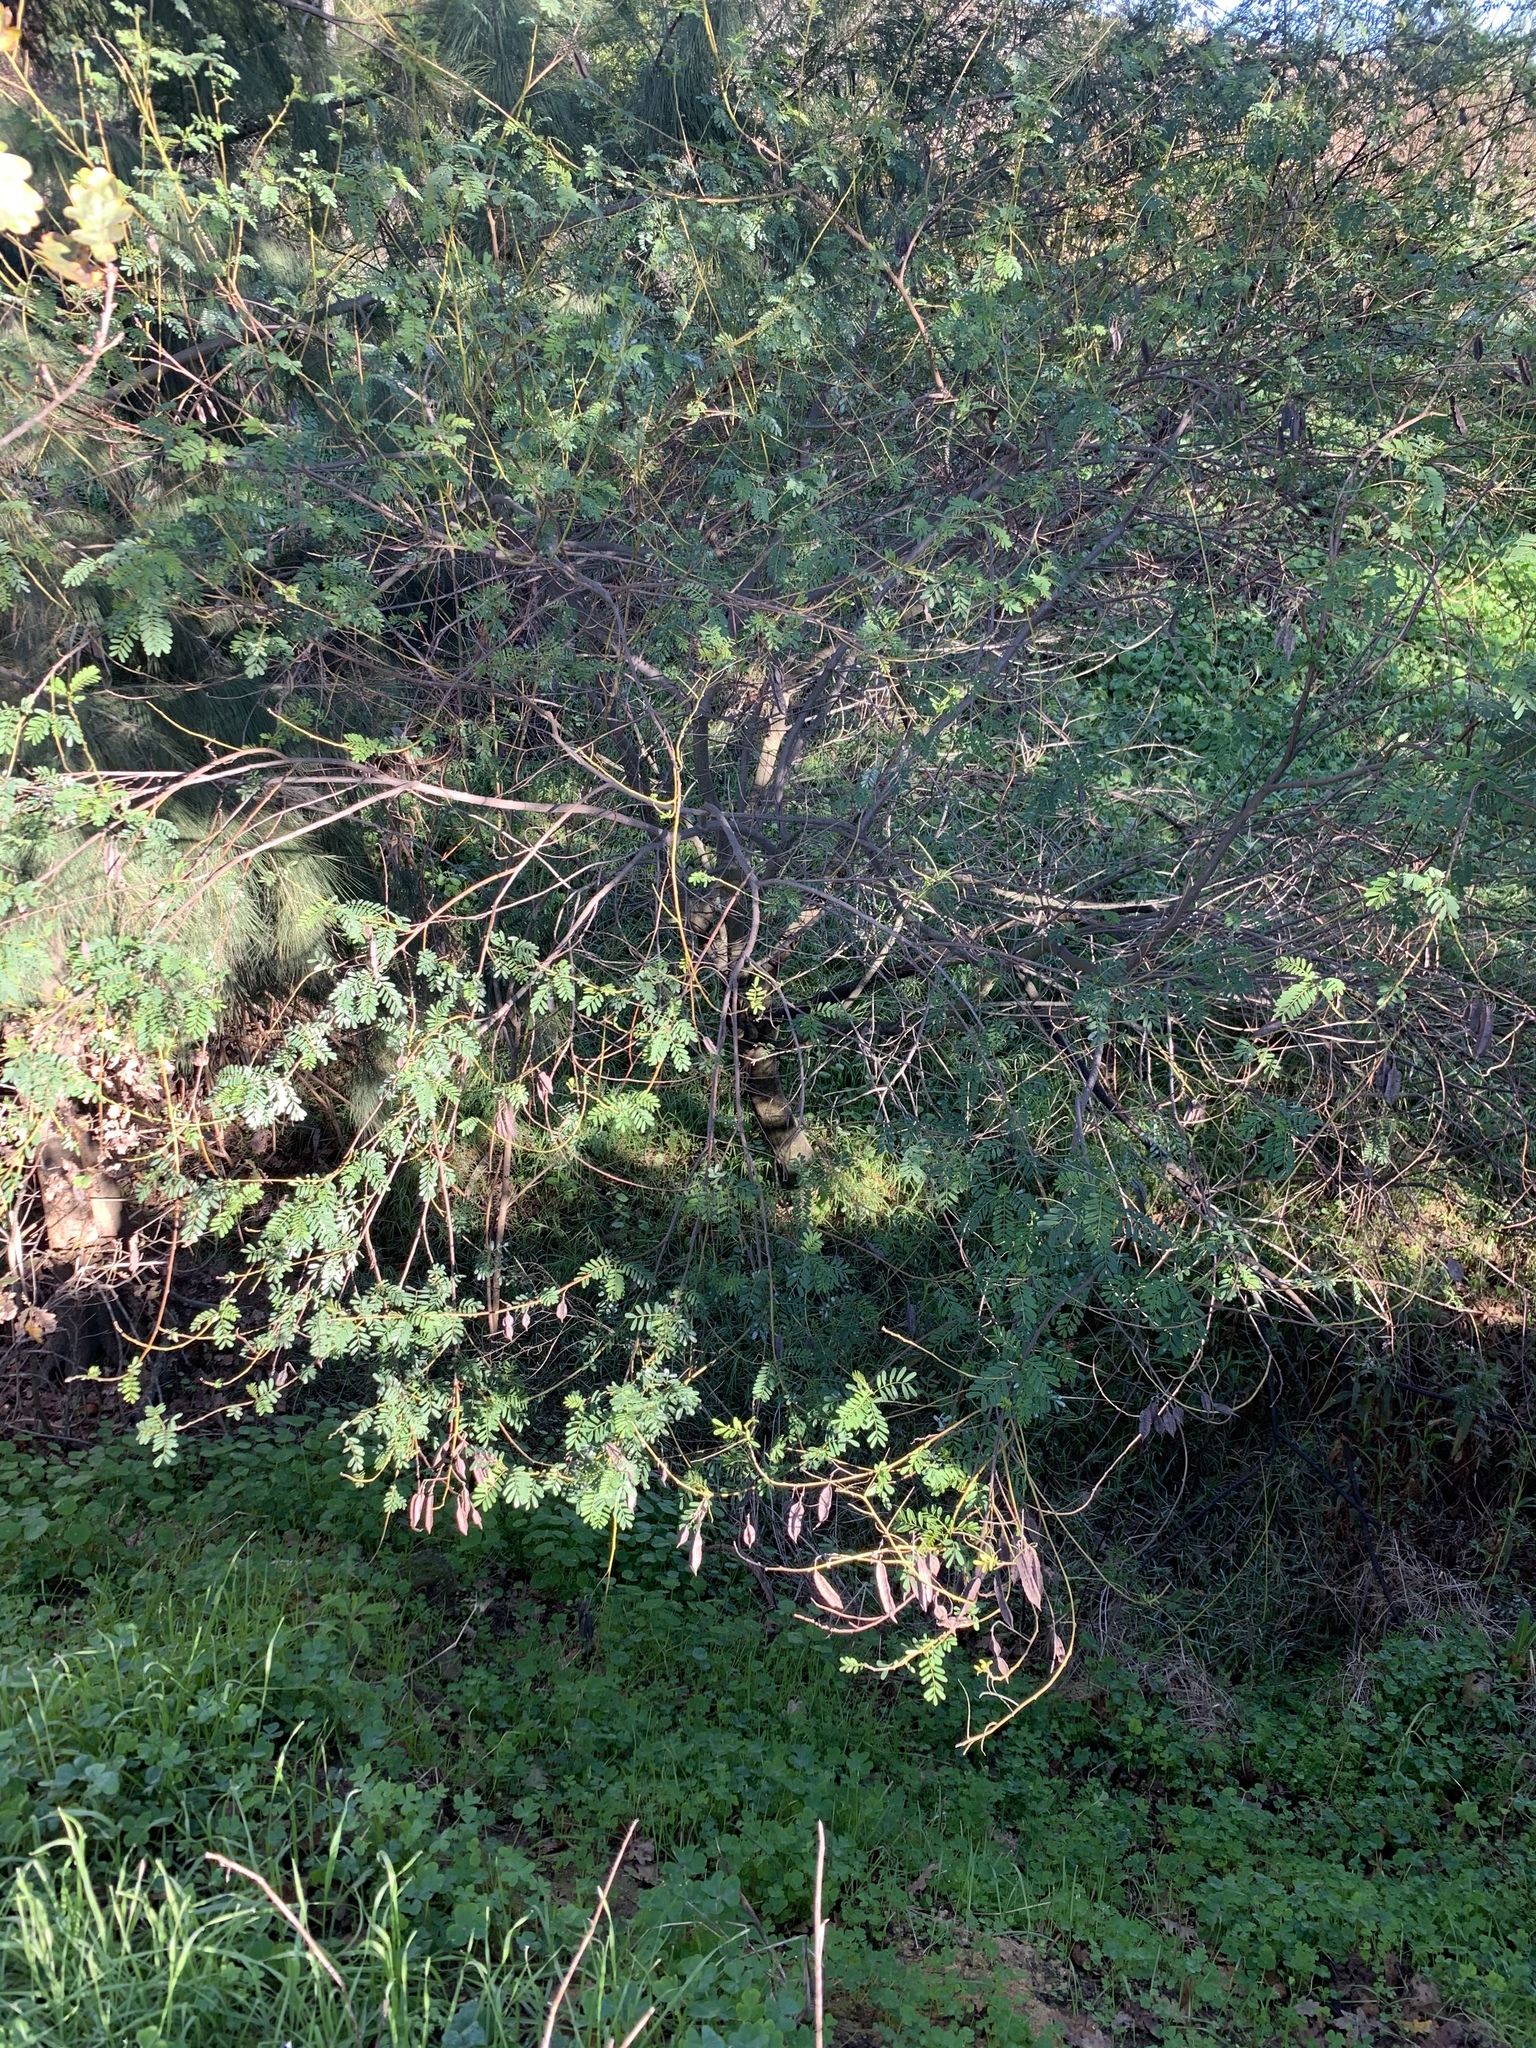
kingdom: Plantae
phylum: Tracheophyta
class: Magnoliopsida
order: Fabales
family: Fabaceae
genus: Sesbania
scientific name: Sesbania punicea
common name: Rattlebox
